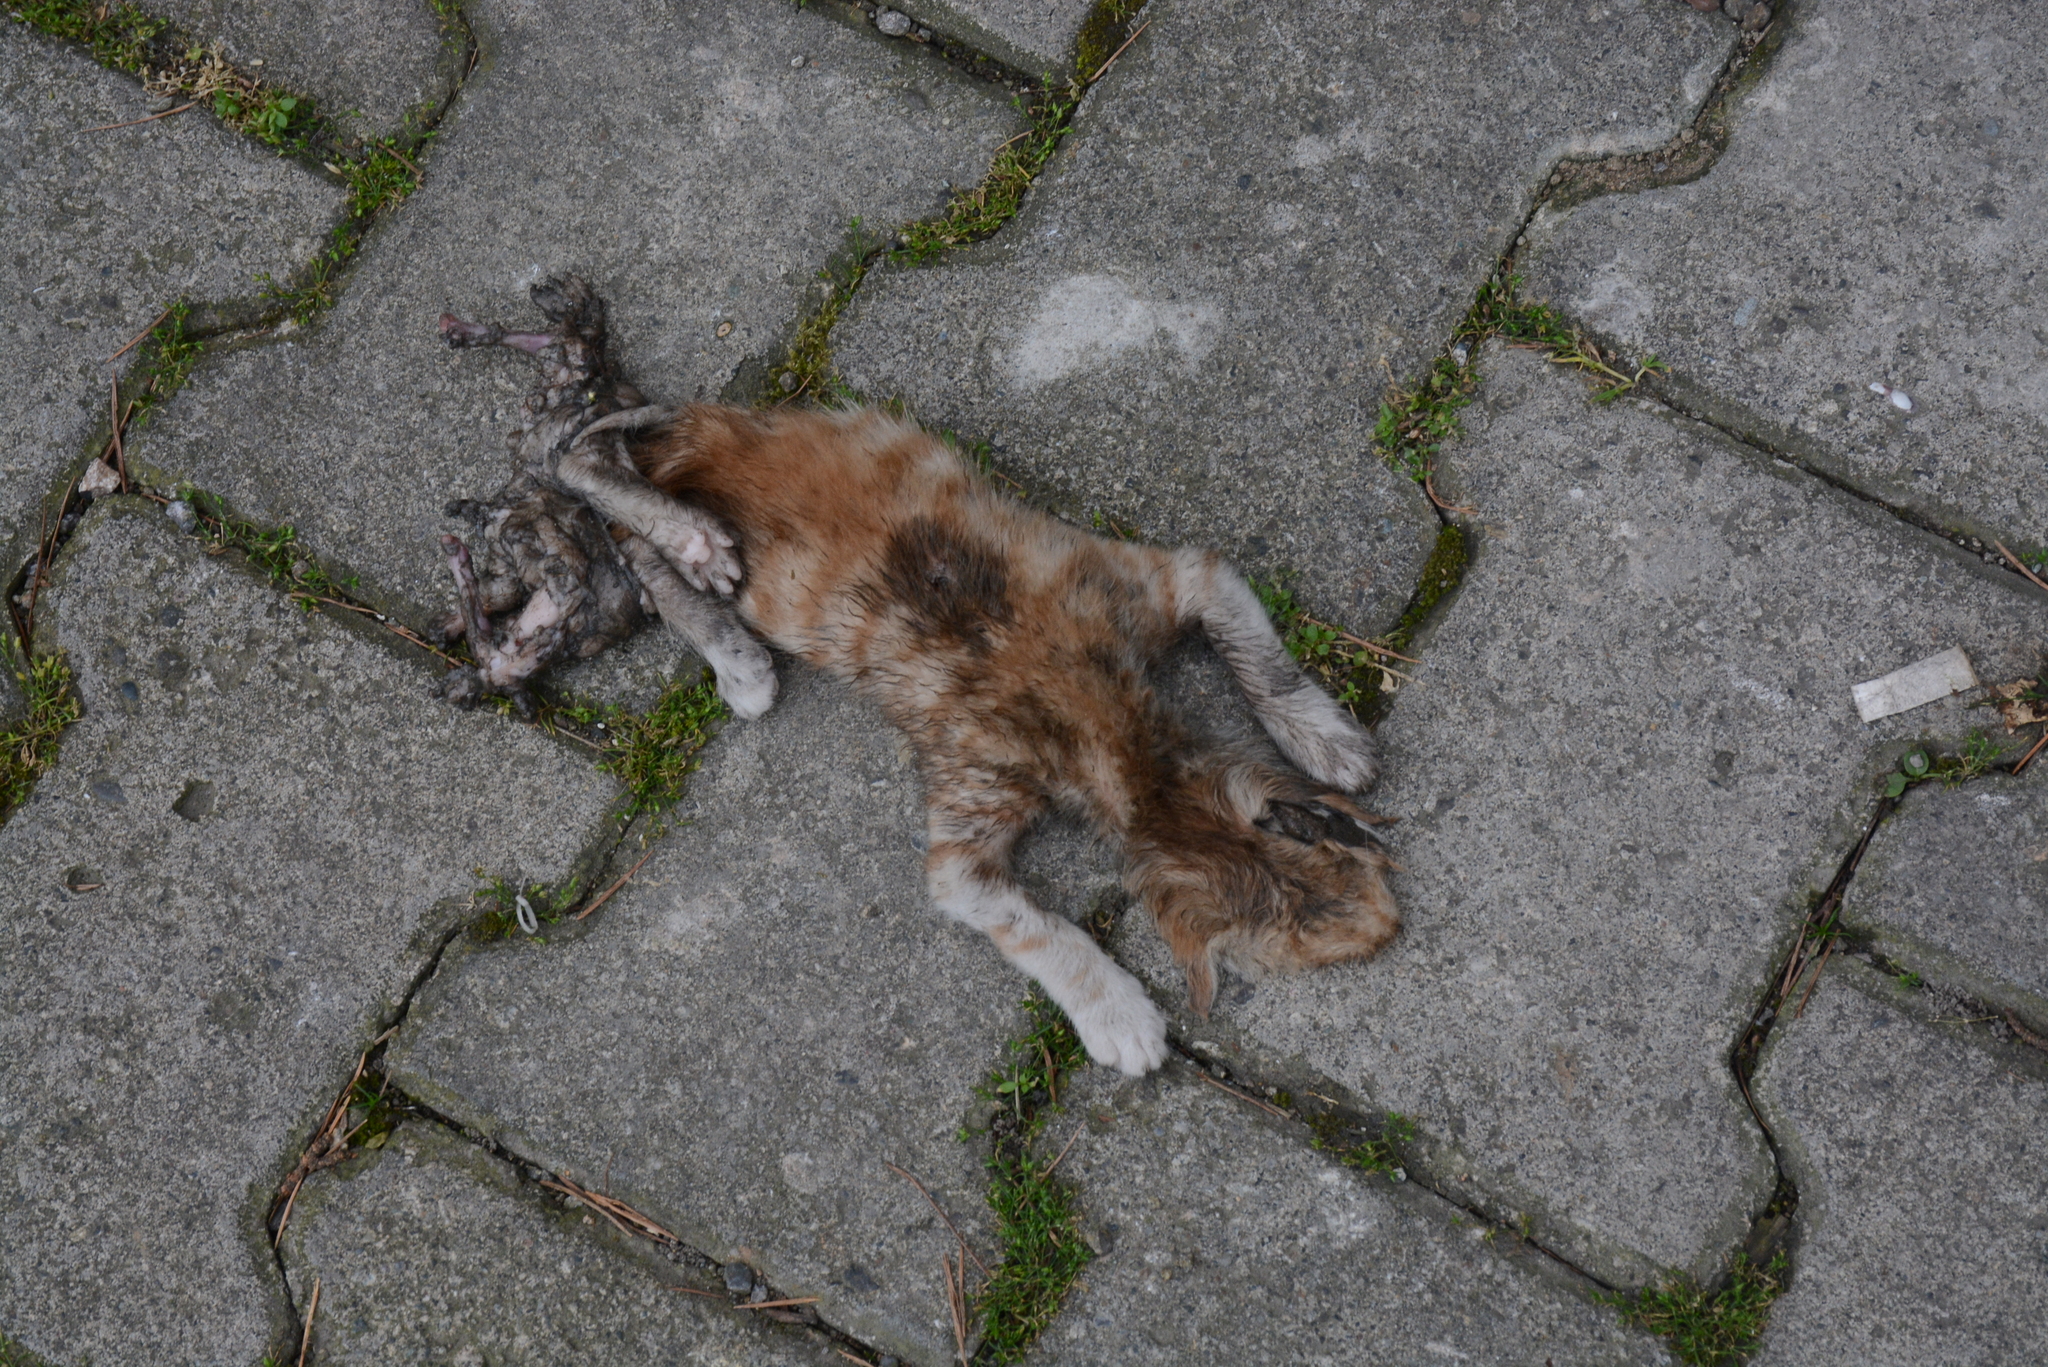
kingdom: Animalia
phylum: Chordata
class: Mammalia
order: Carnivora
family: Felidae
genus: Felis
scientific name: Felis catus
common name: Domestic cat
